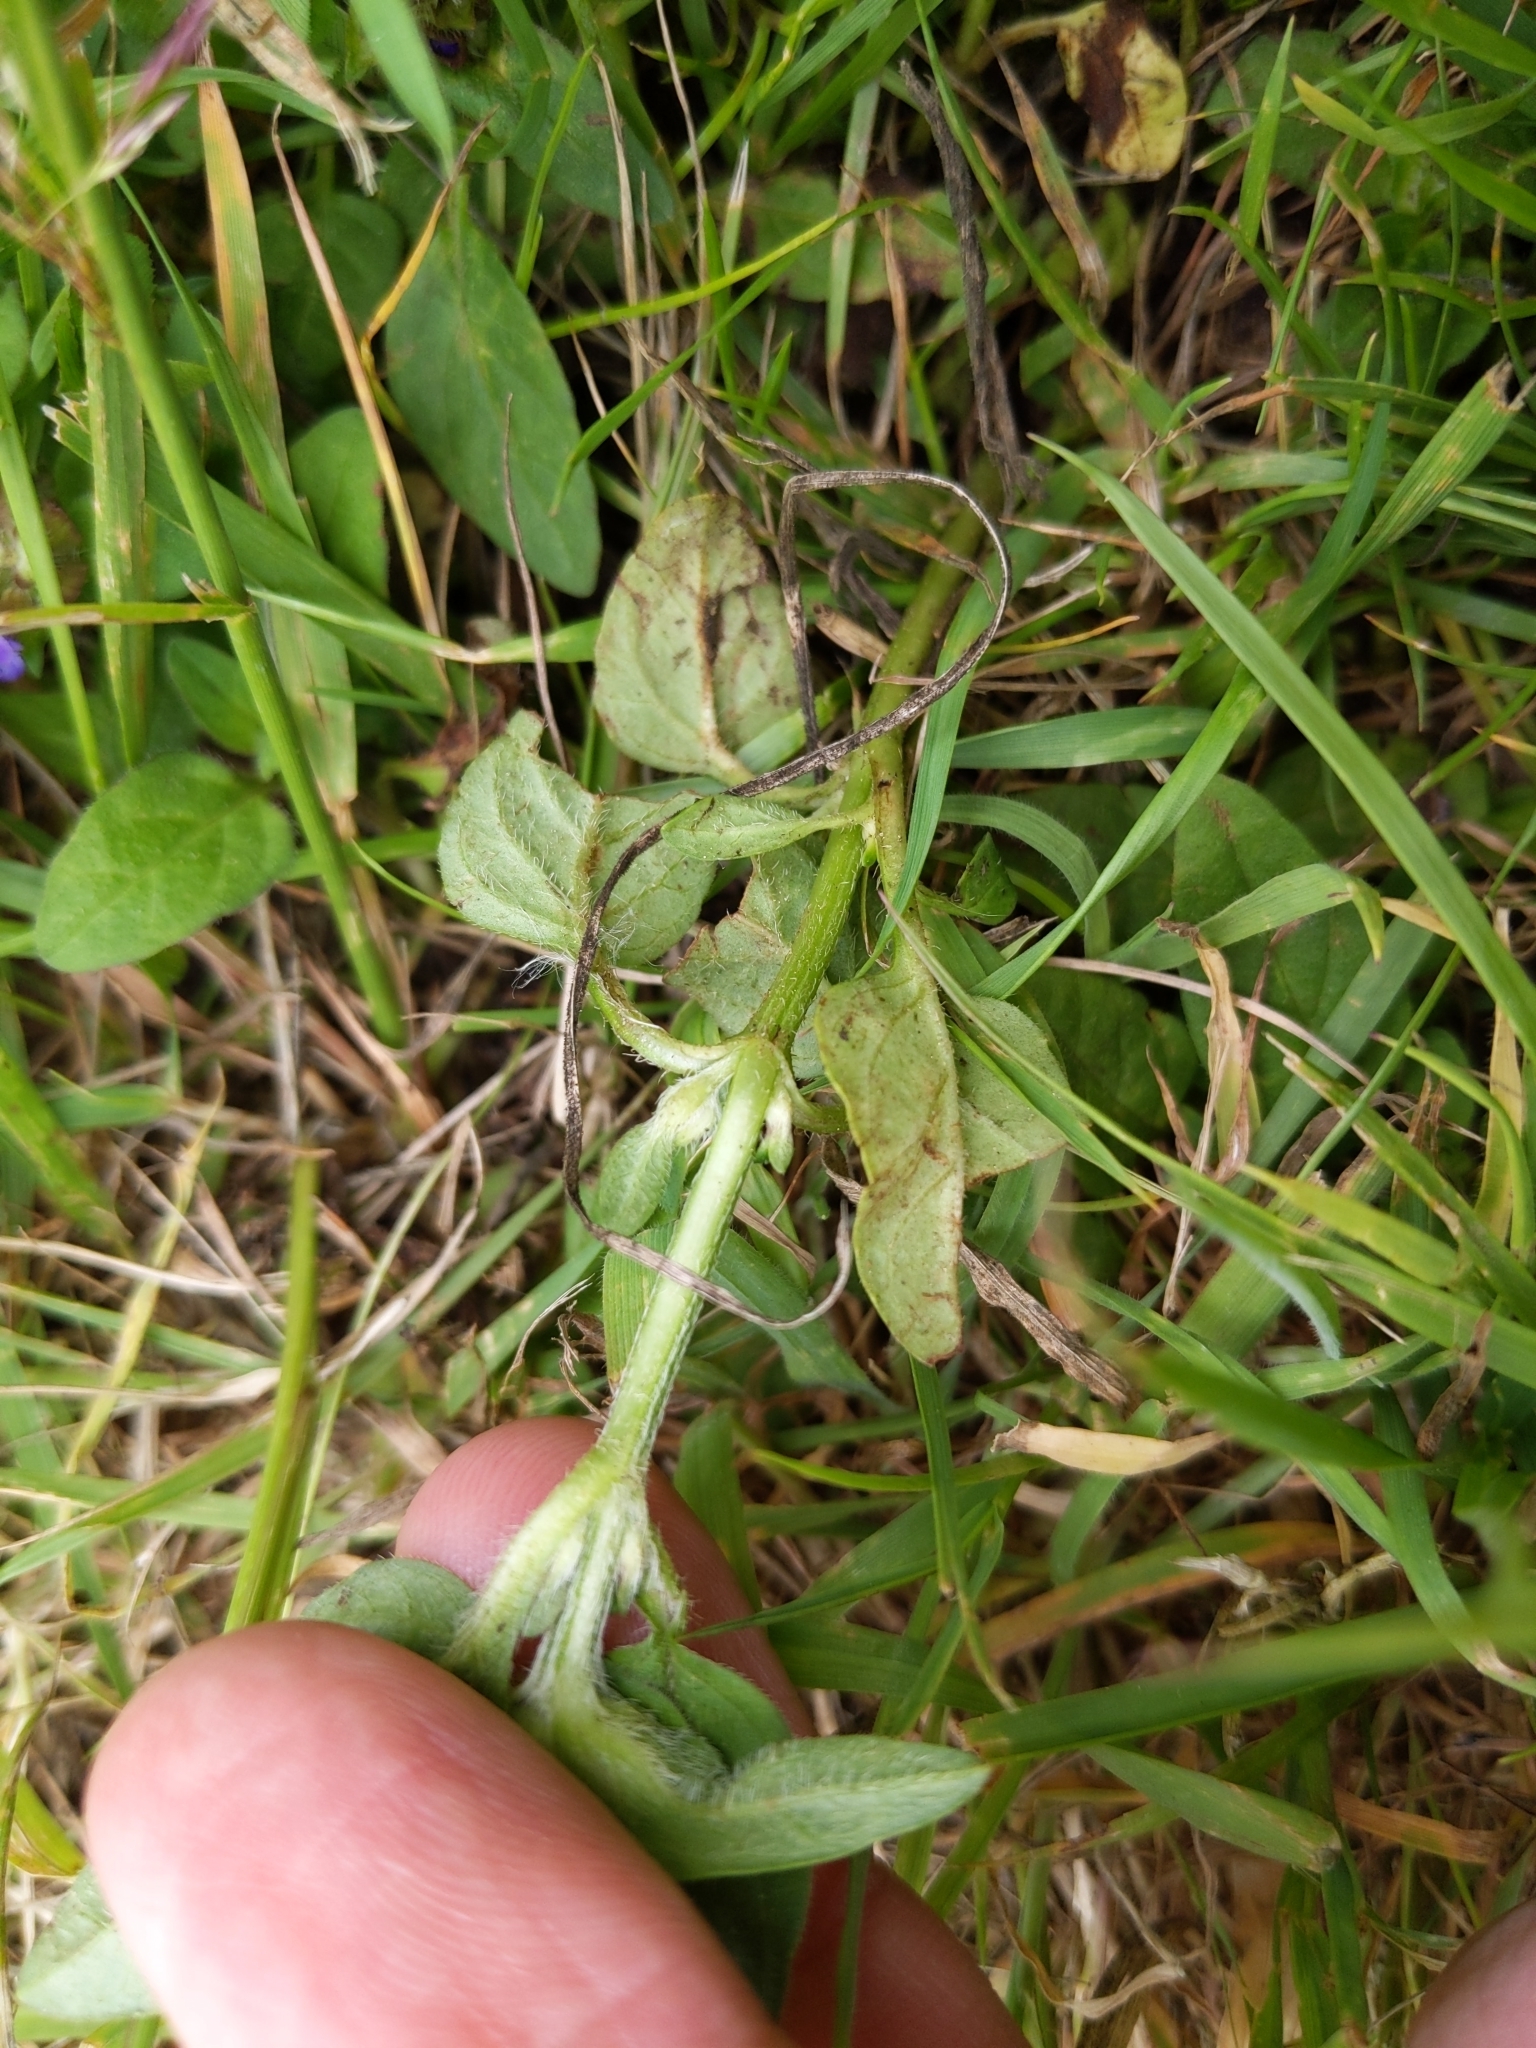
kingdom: Plantae
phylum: Tracheophyta
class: Magnoliopsida
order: Lamiales
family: Lamiaceae
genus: Prunella
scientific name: Prunella vulgaris
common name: Heal-all
